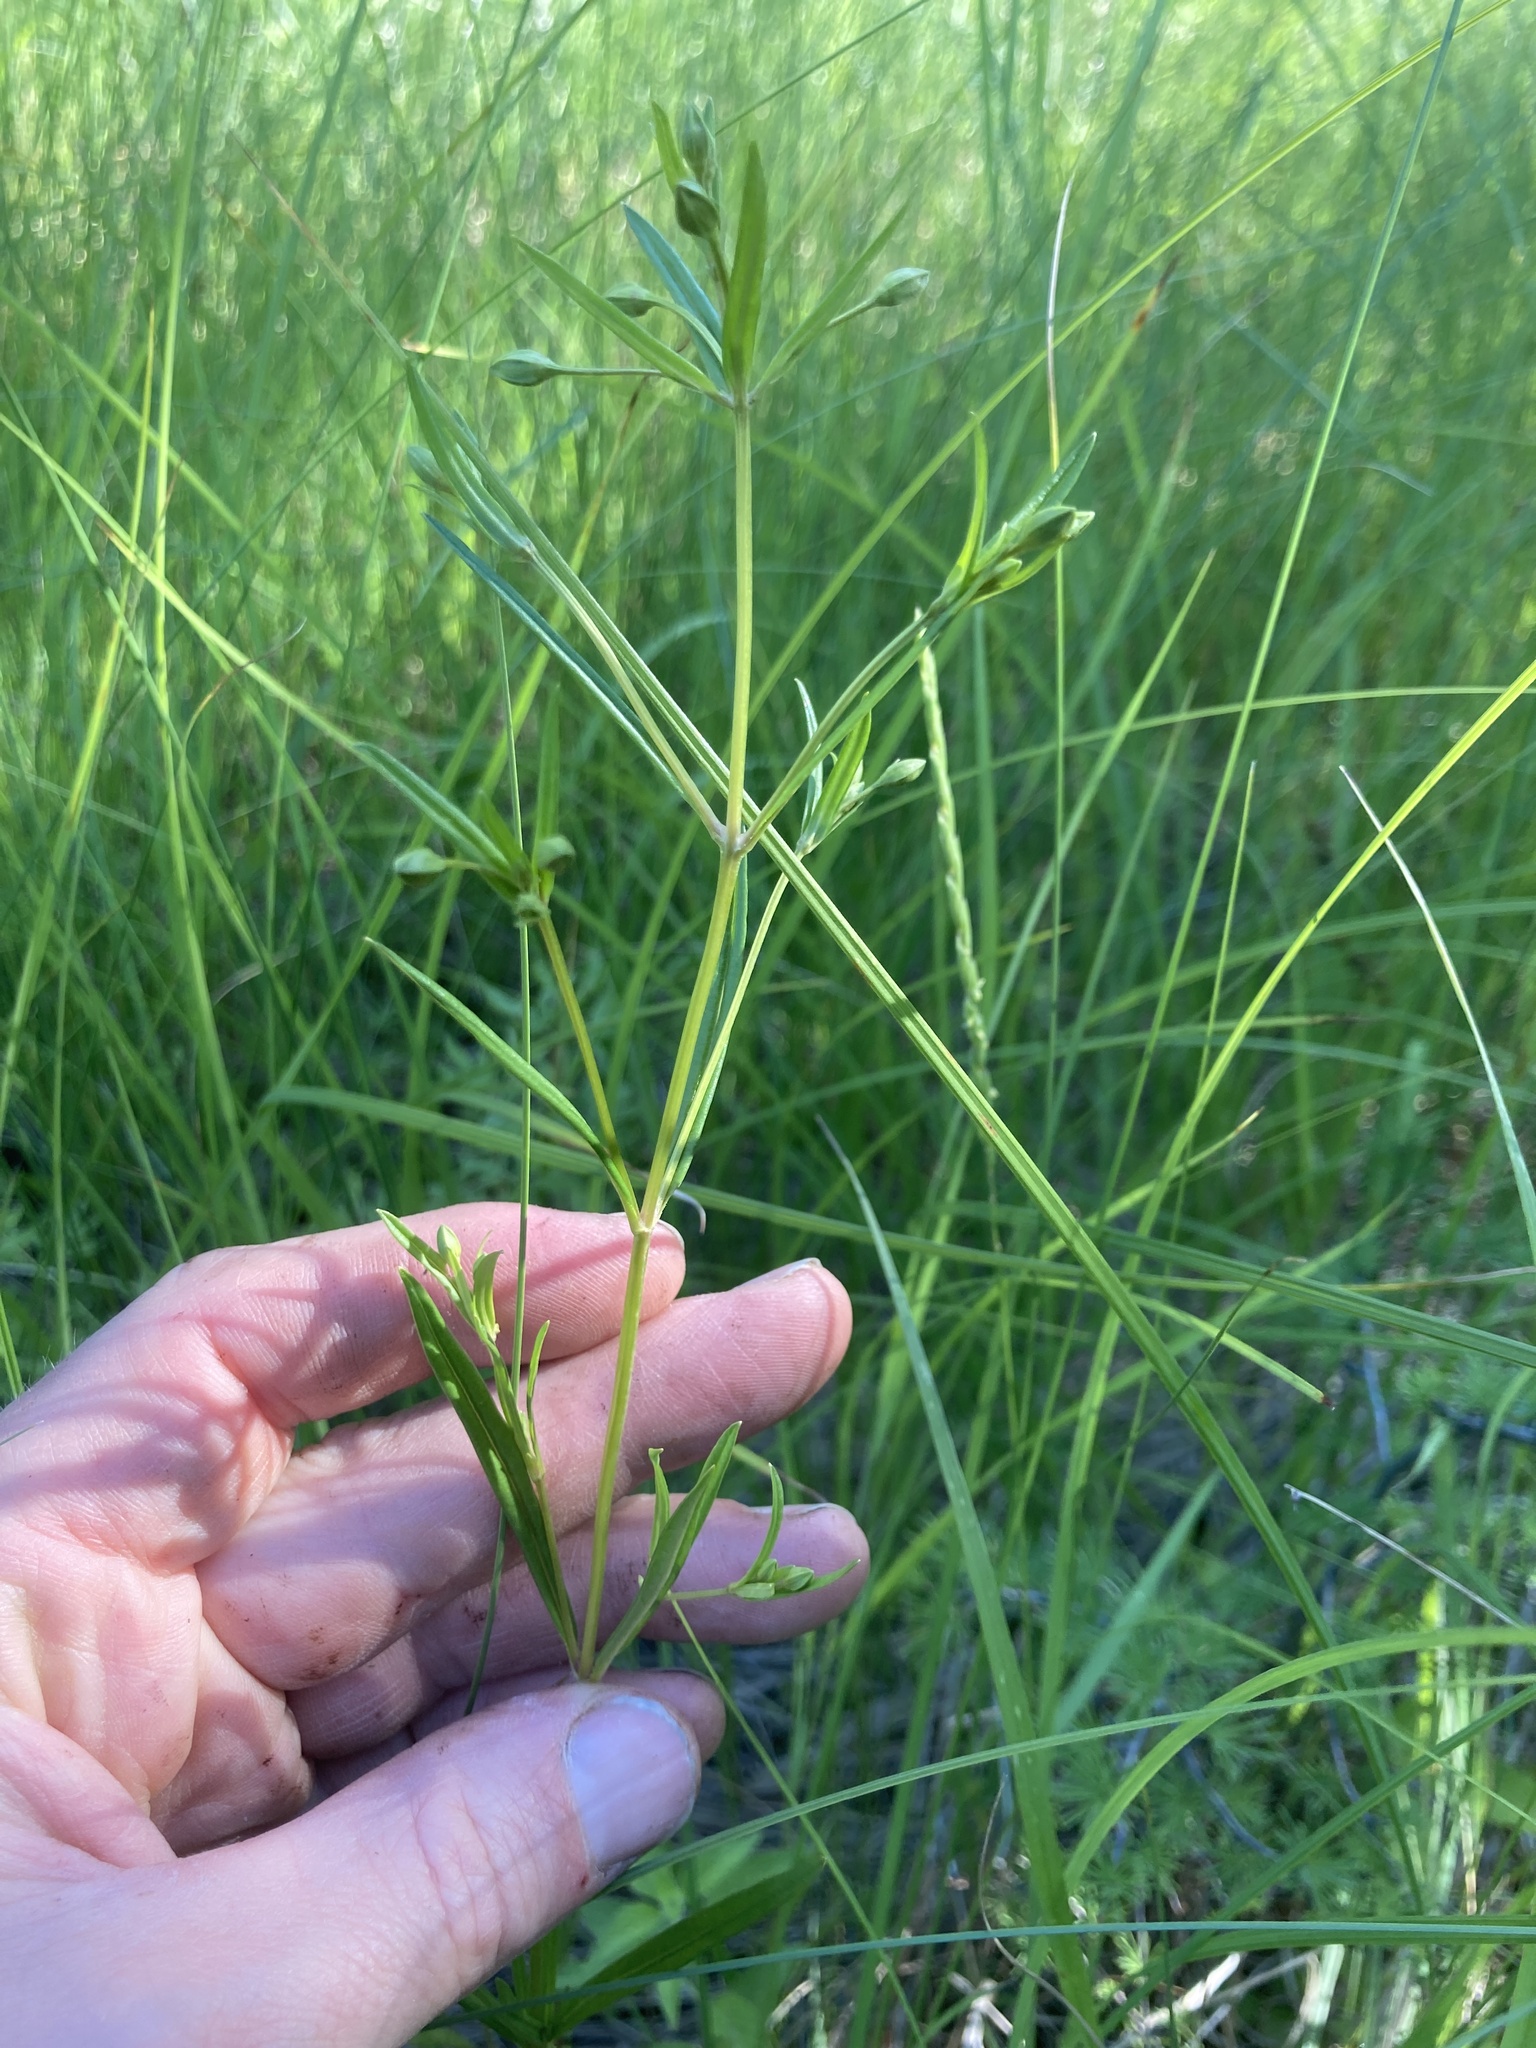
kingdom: Plantae
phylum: Tracheophyta
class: Magnoliopsida
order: Ericales
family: Primulaceae
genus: Lysimachia
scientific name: Lysimachia quadriflora
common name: Four-flowered loosestrife
